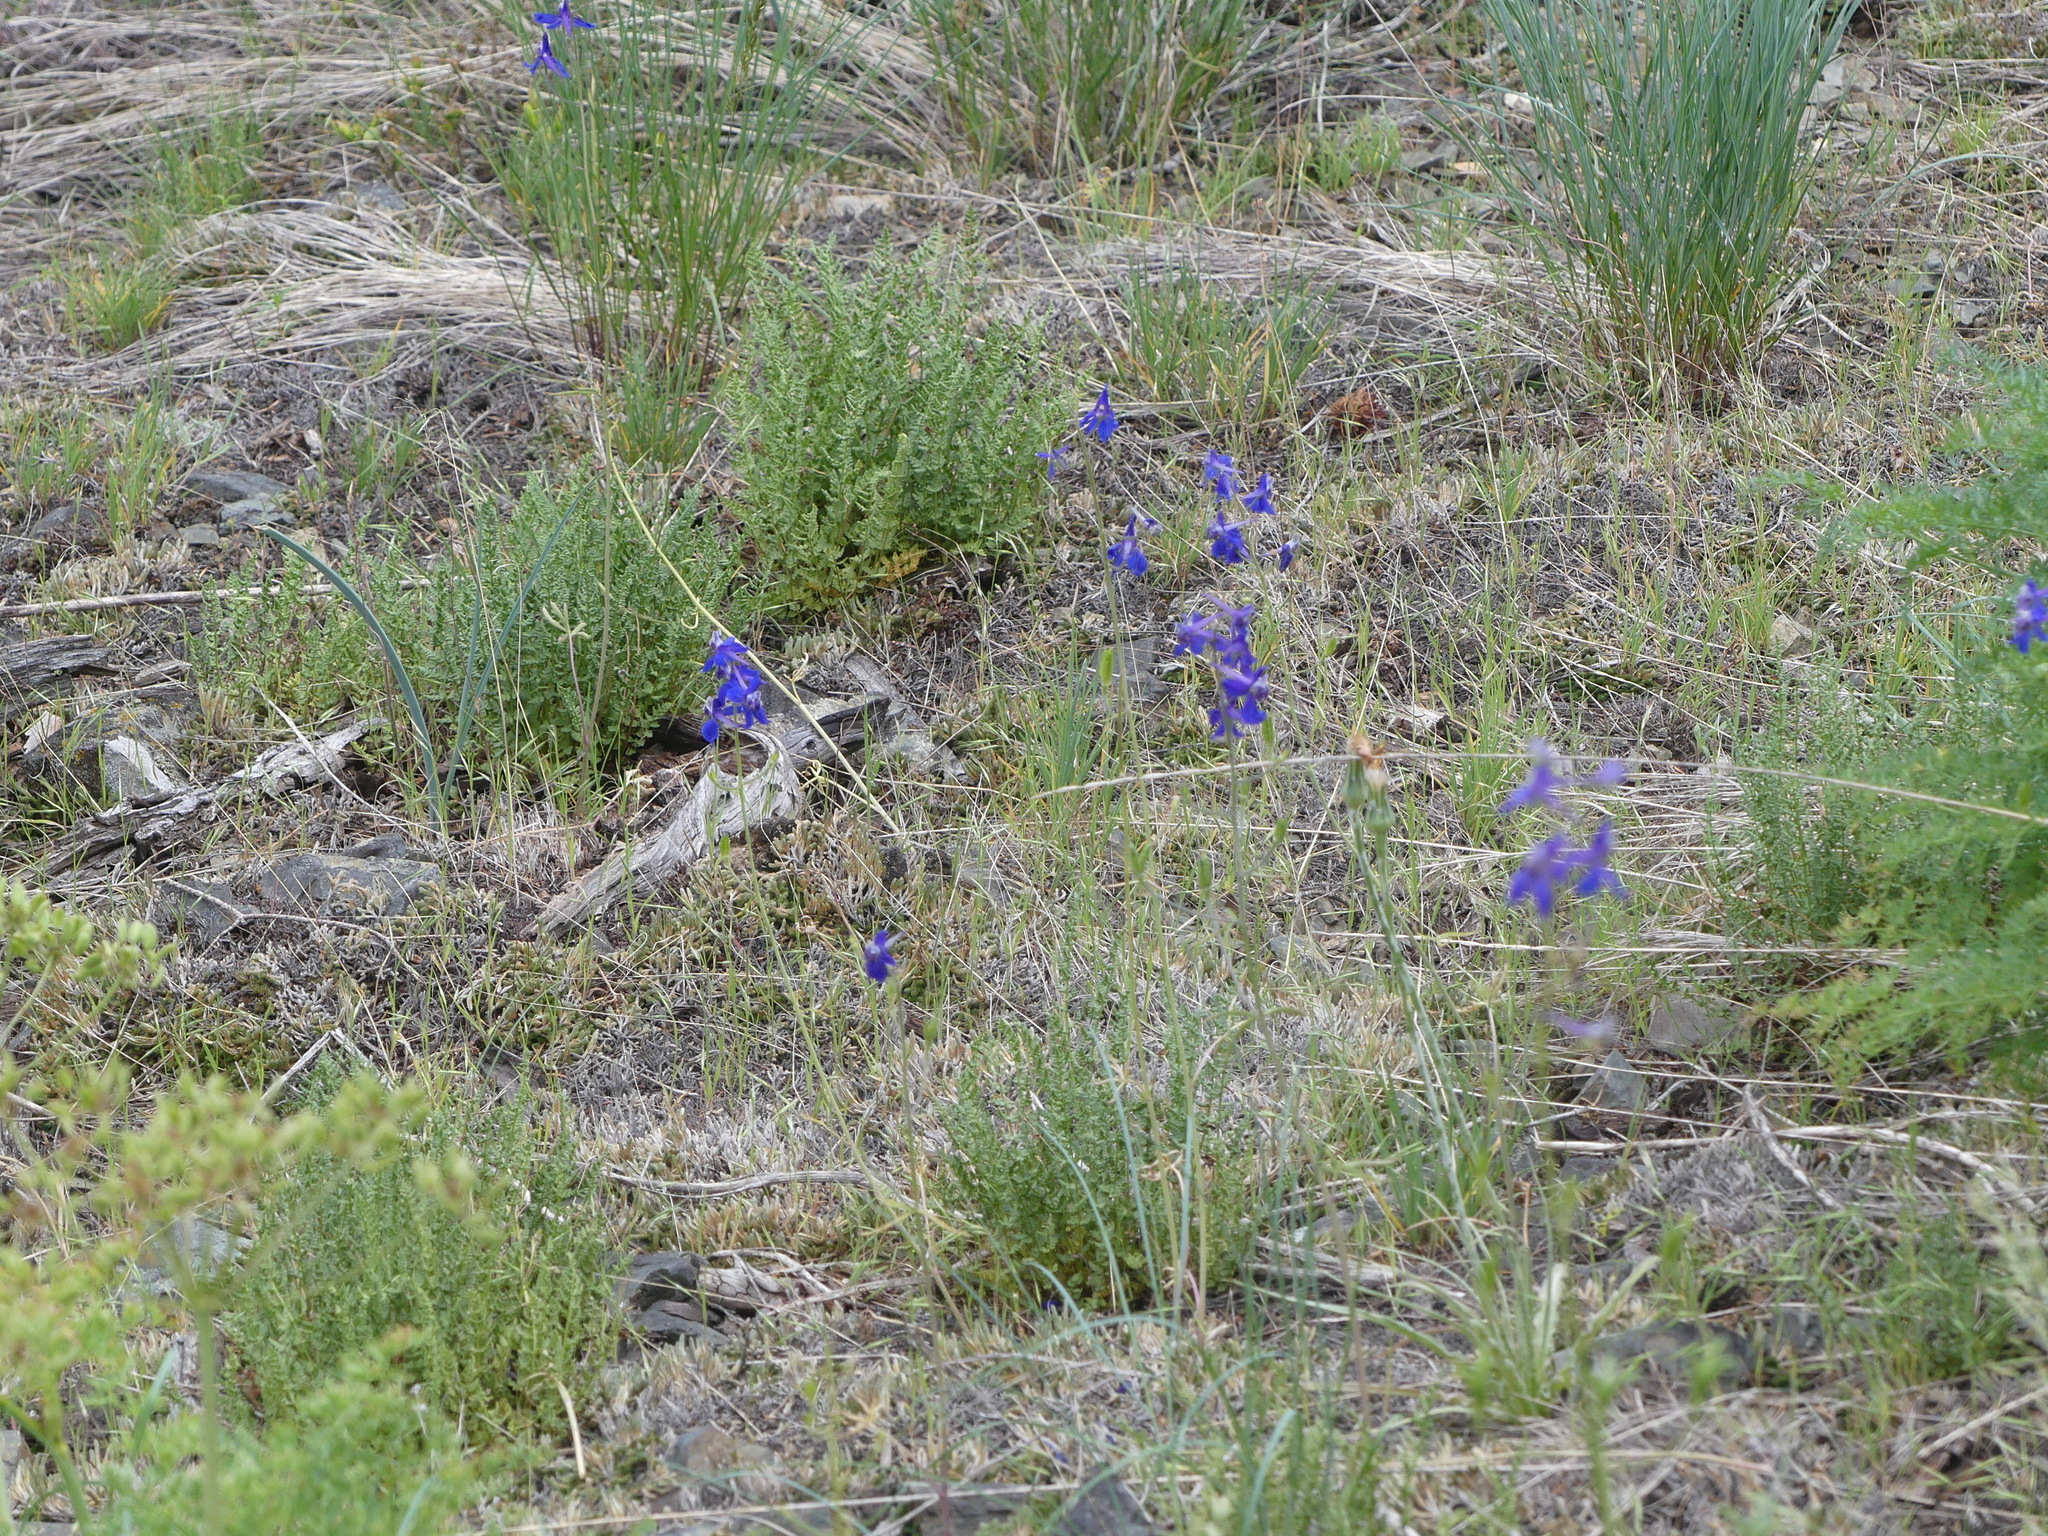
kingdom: Plantae
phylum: Tracheophyta
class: Magnoliopsida
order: Ranunculales
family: Ranunculaceae
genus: Delphinium
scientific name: Delphinium nuttallianum
